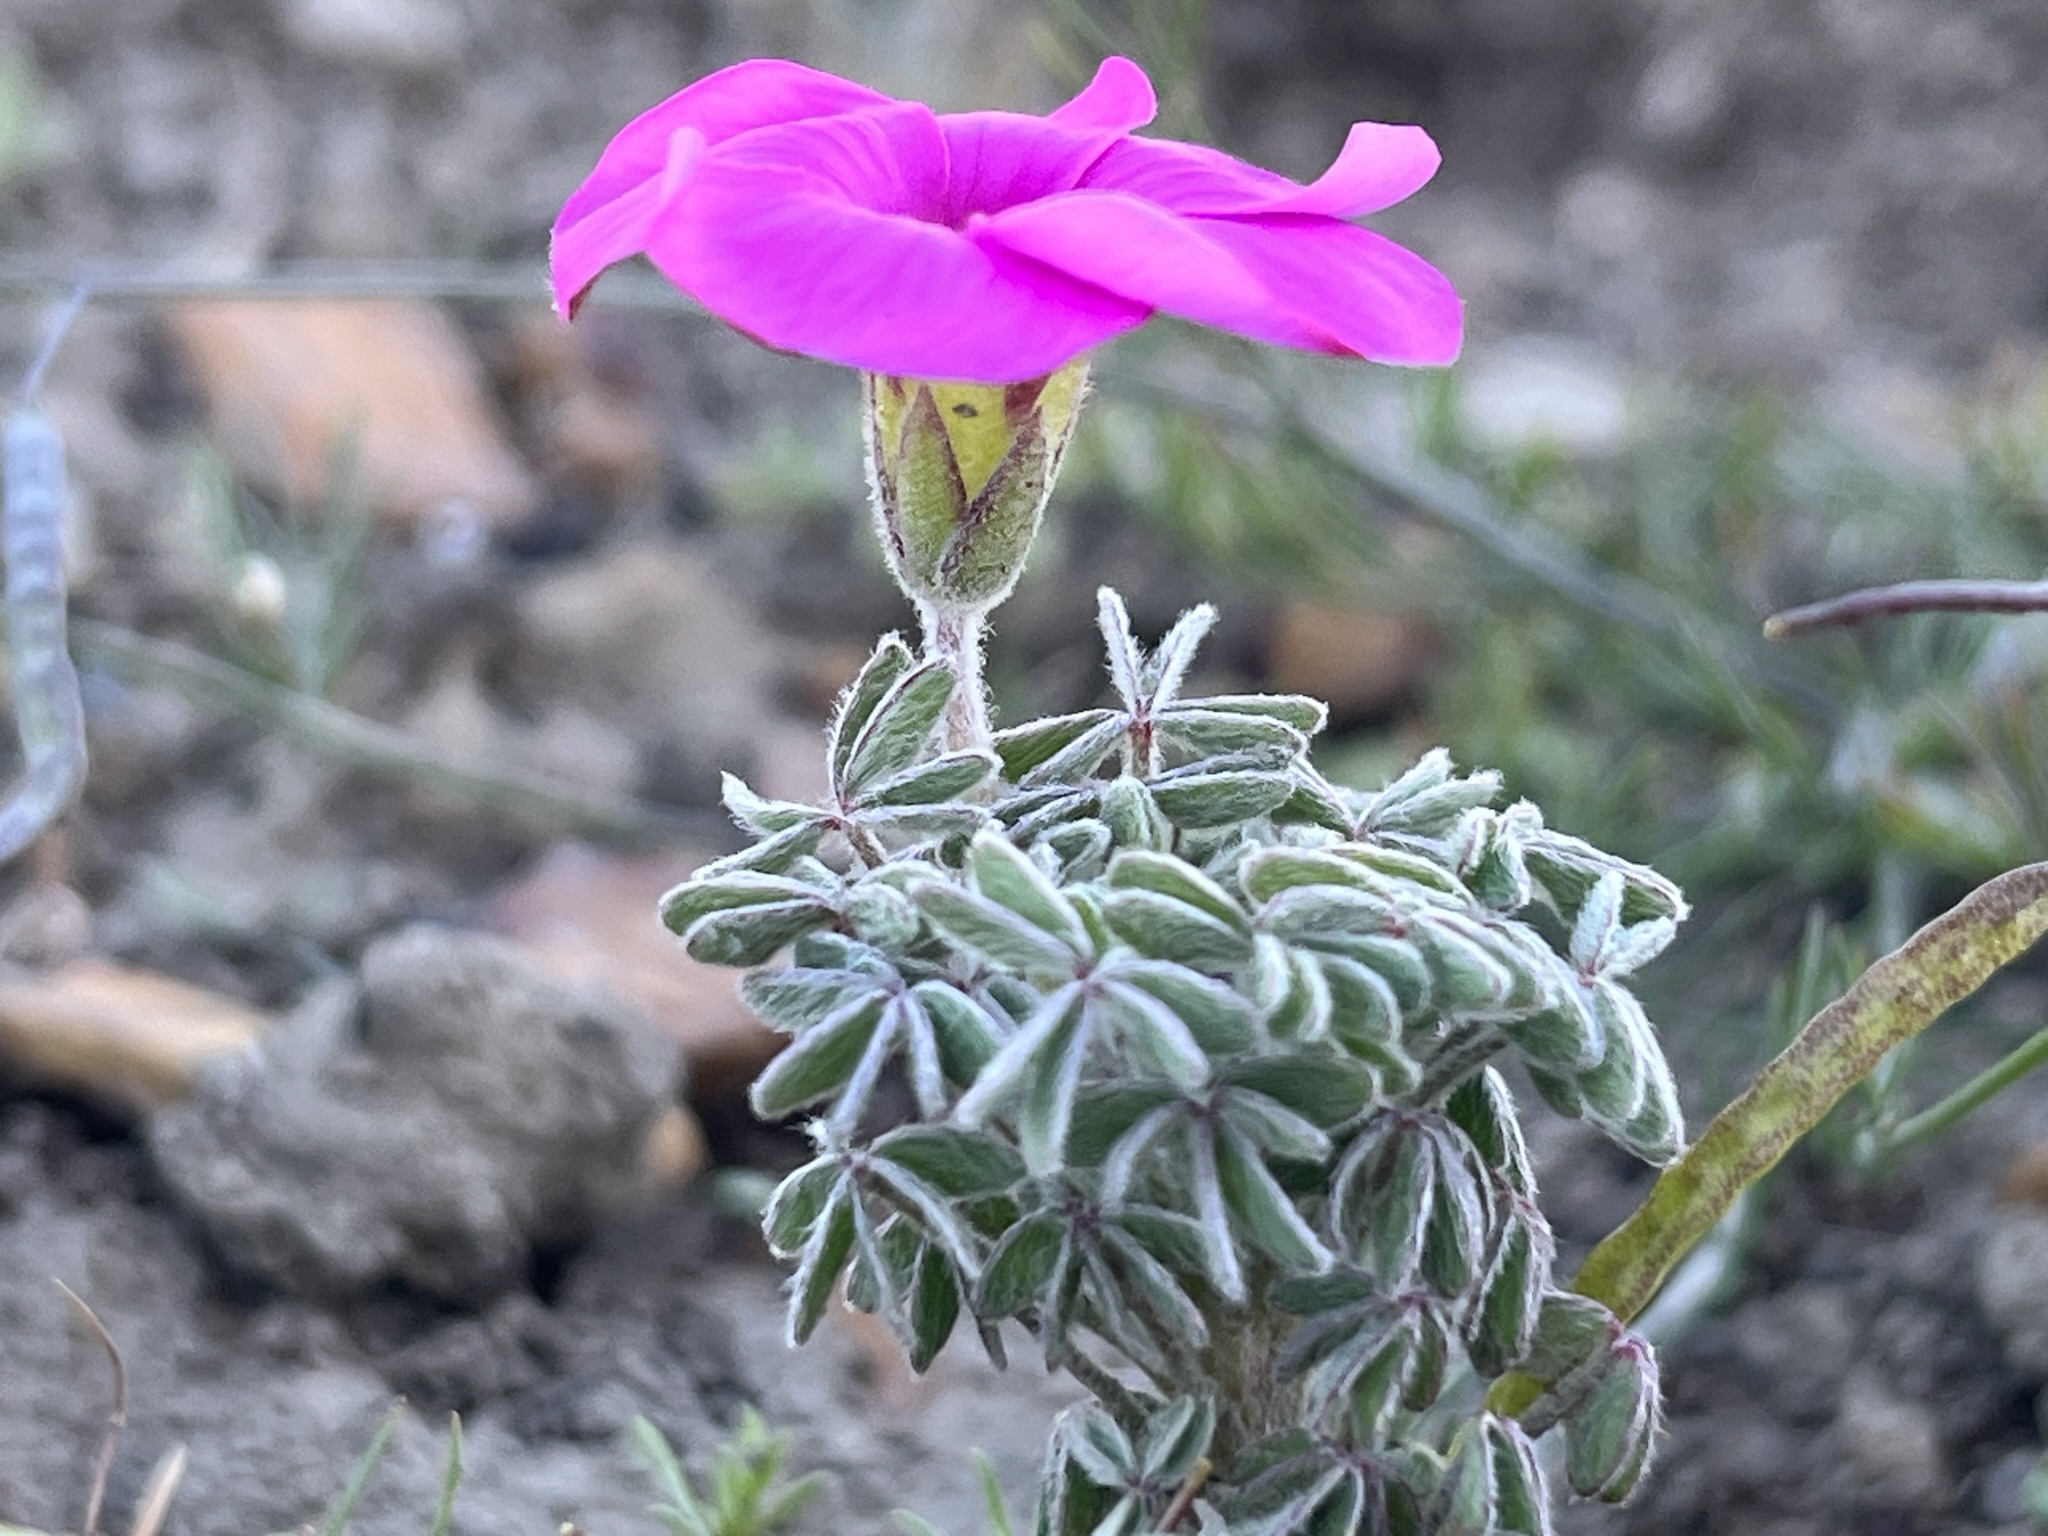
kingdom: Plantae
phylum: Tracheophyta
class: Magnoliopsida
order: Oxalidales
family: Oxalidaceae
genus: Oxalis
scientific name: Oxalis heterophylla
